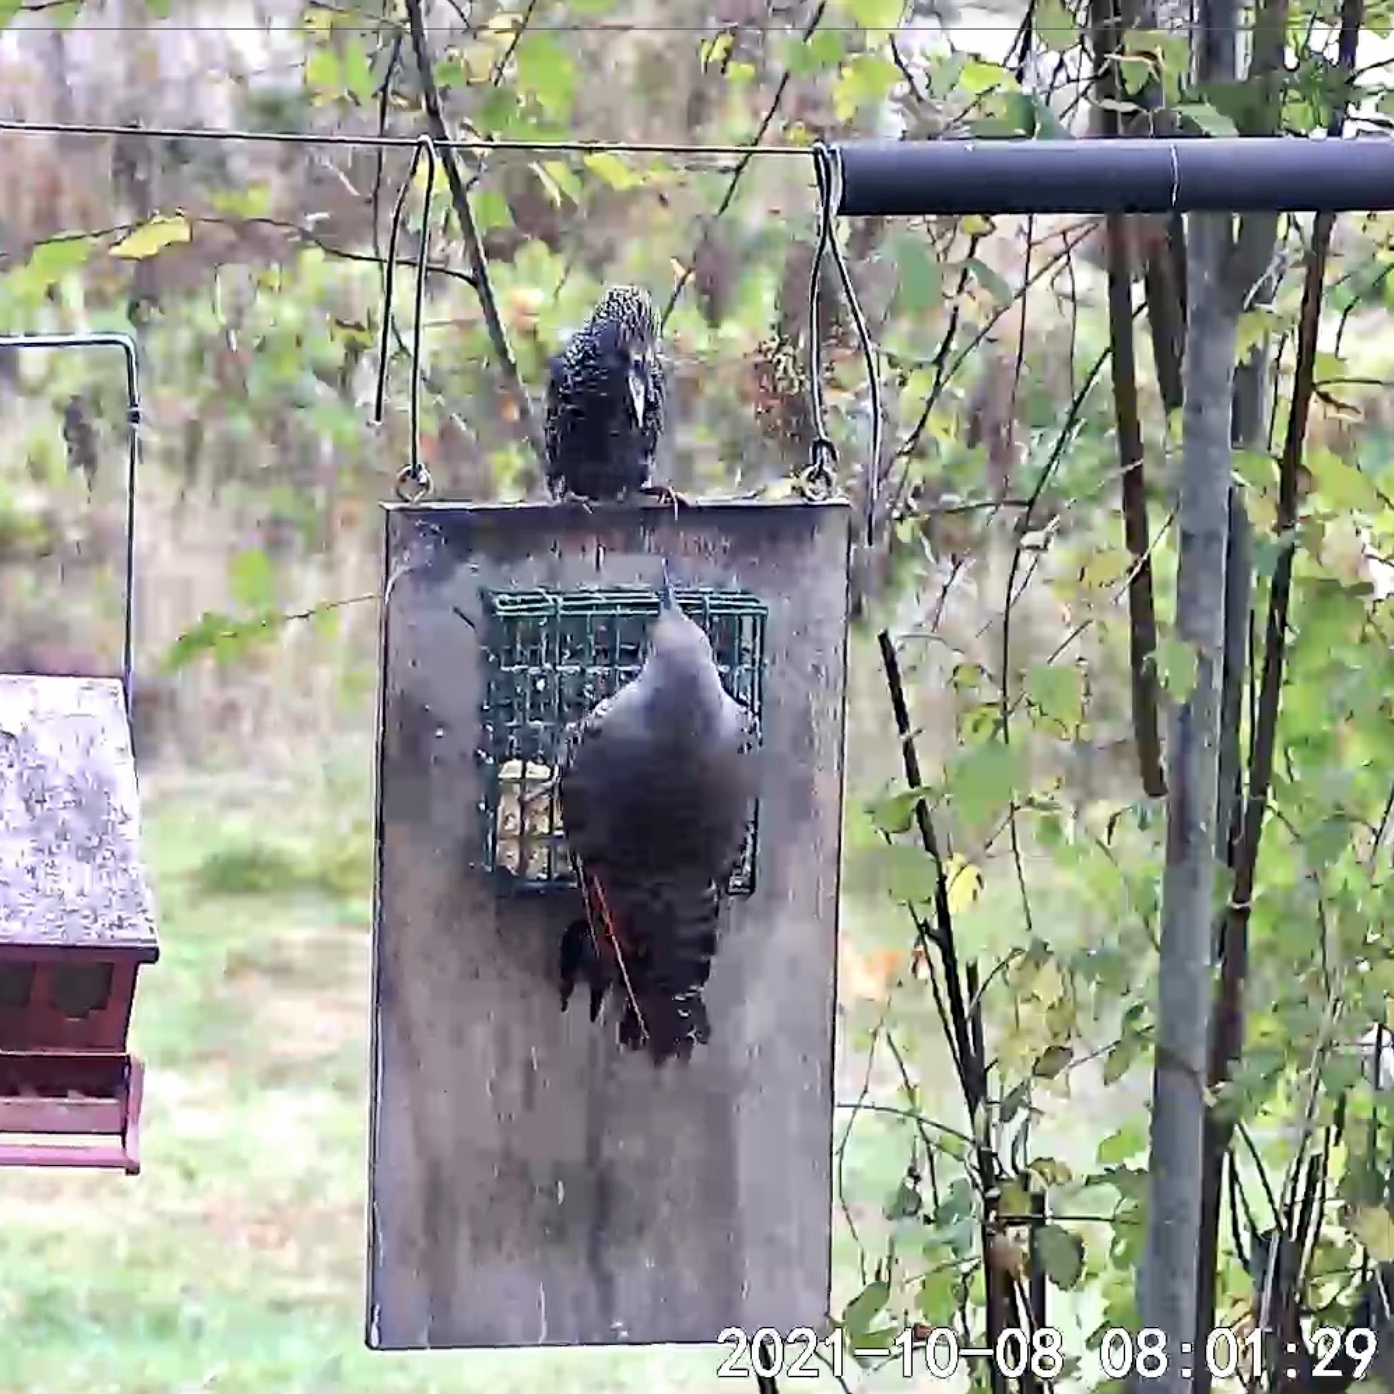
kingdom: Animalia
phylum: Chordata
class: Aves
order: Passeriformes
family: Sturnidae
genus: Sturnus
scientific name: Sturnus vulgaris
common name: Common starling
